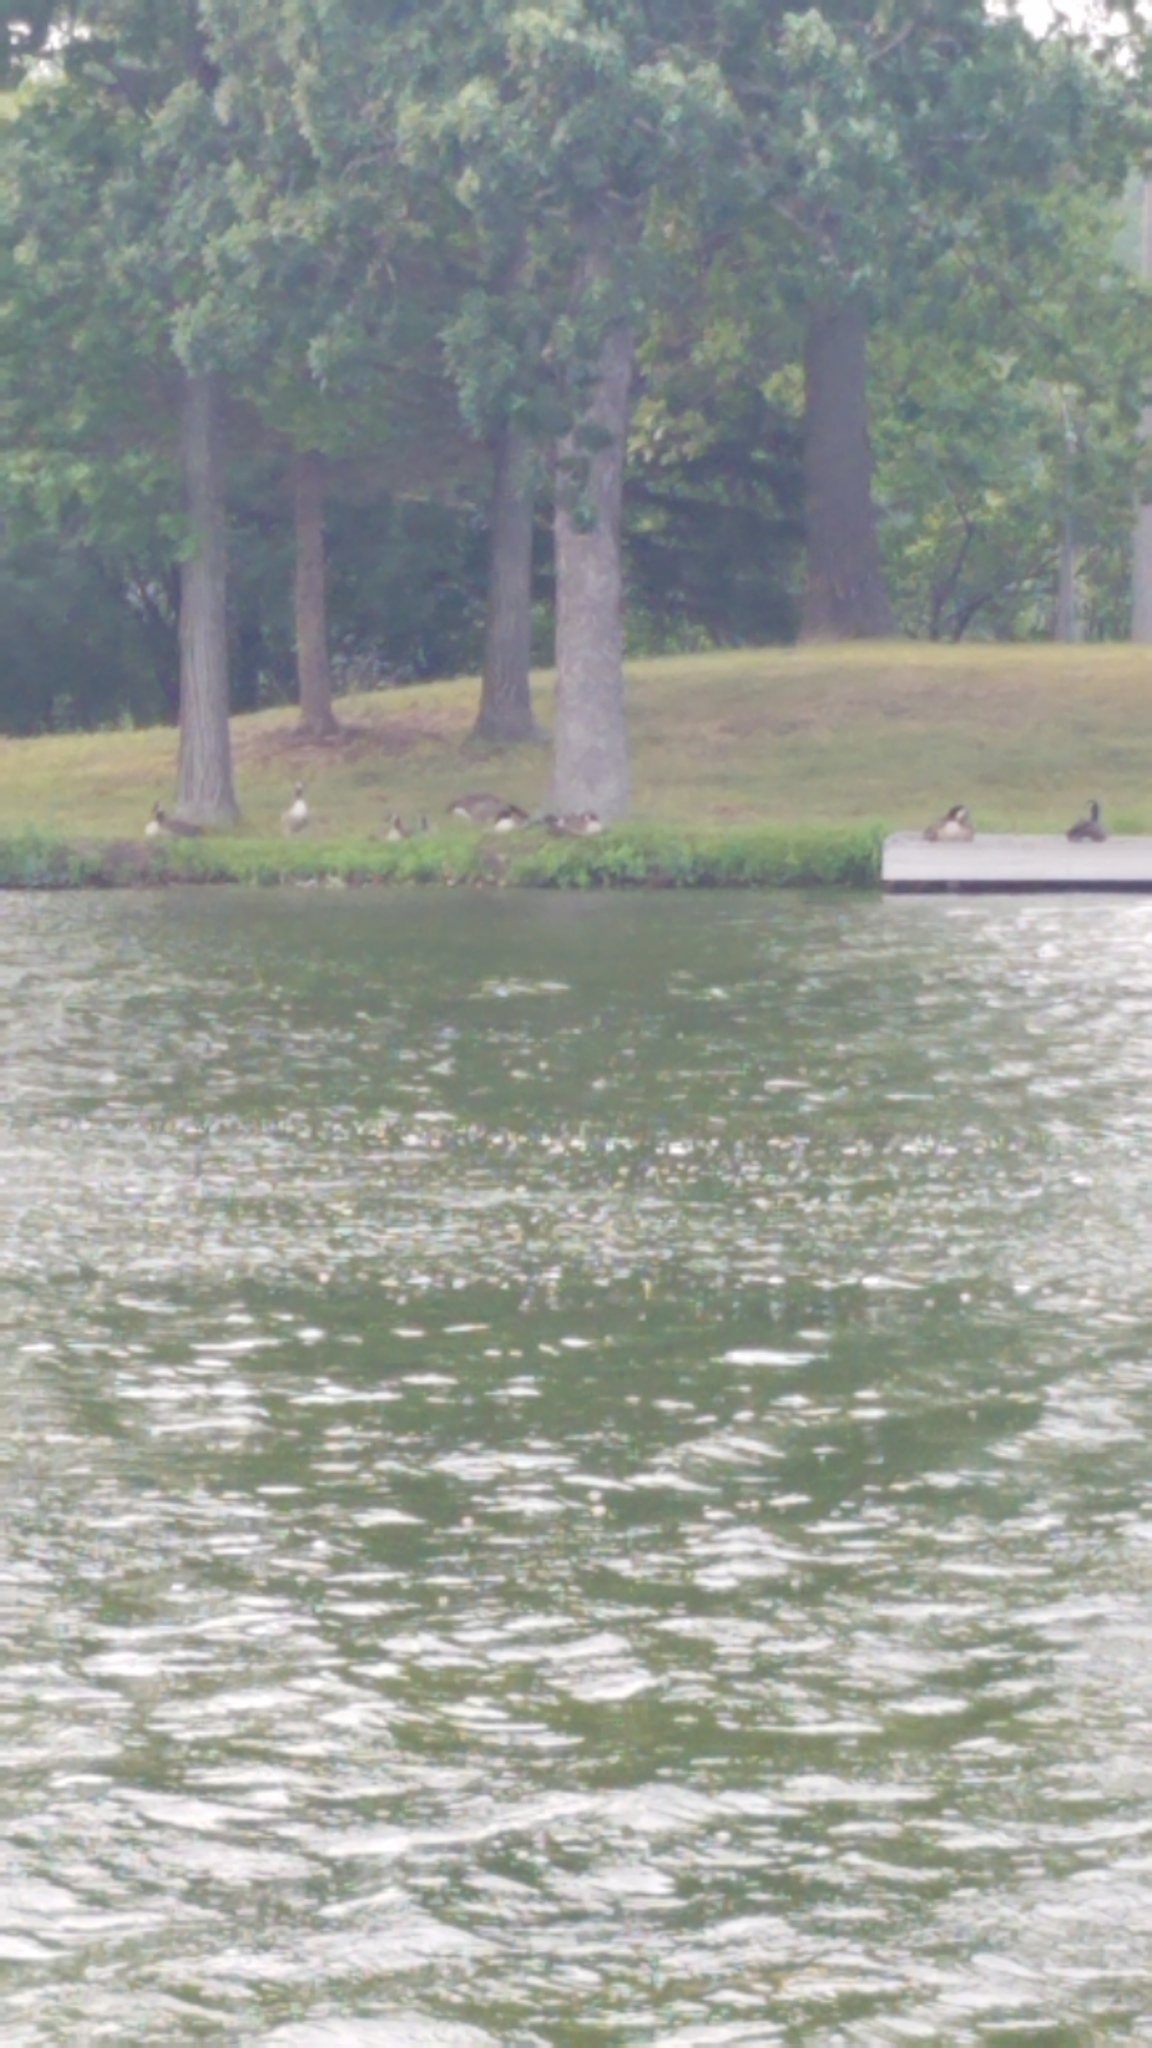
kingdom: Animalia
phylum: Chordata
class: Aves
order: Anseriformes
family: Anatidae
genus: Branta
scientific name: Branta canadensis
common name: Canada goose
